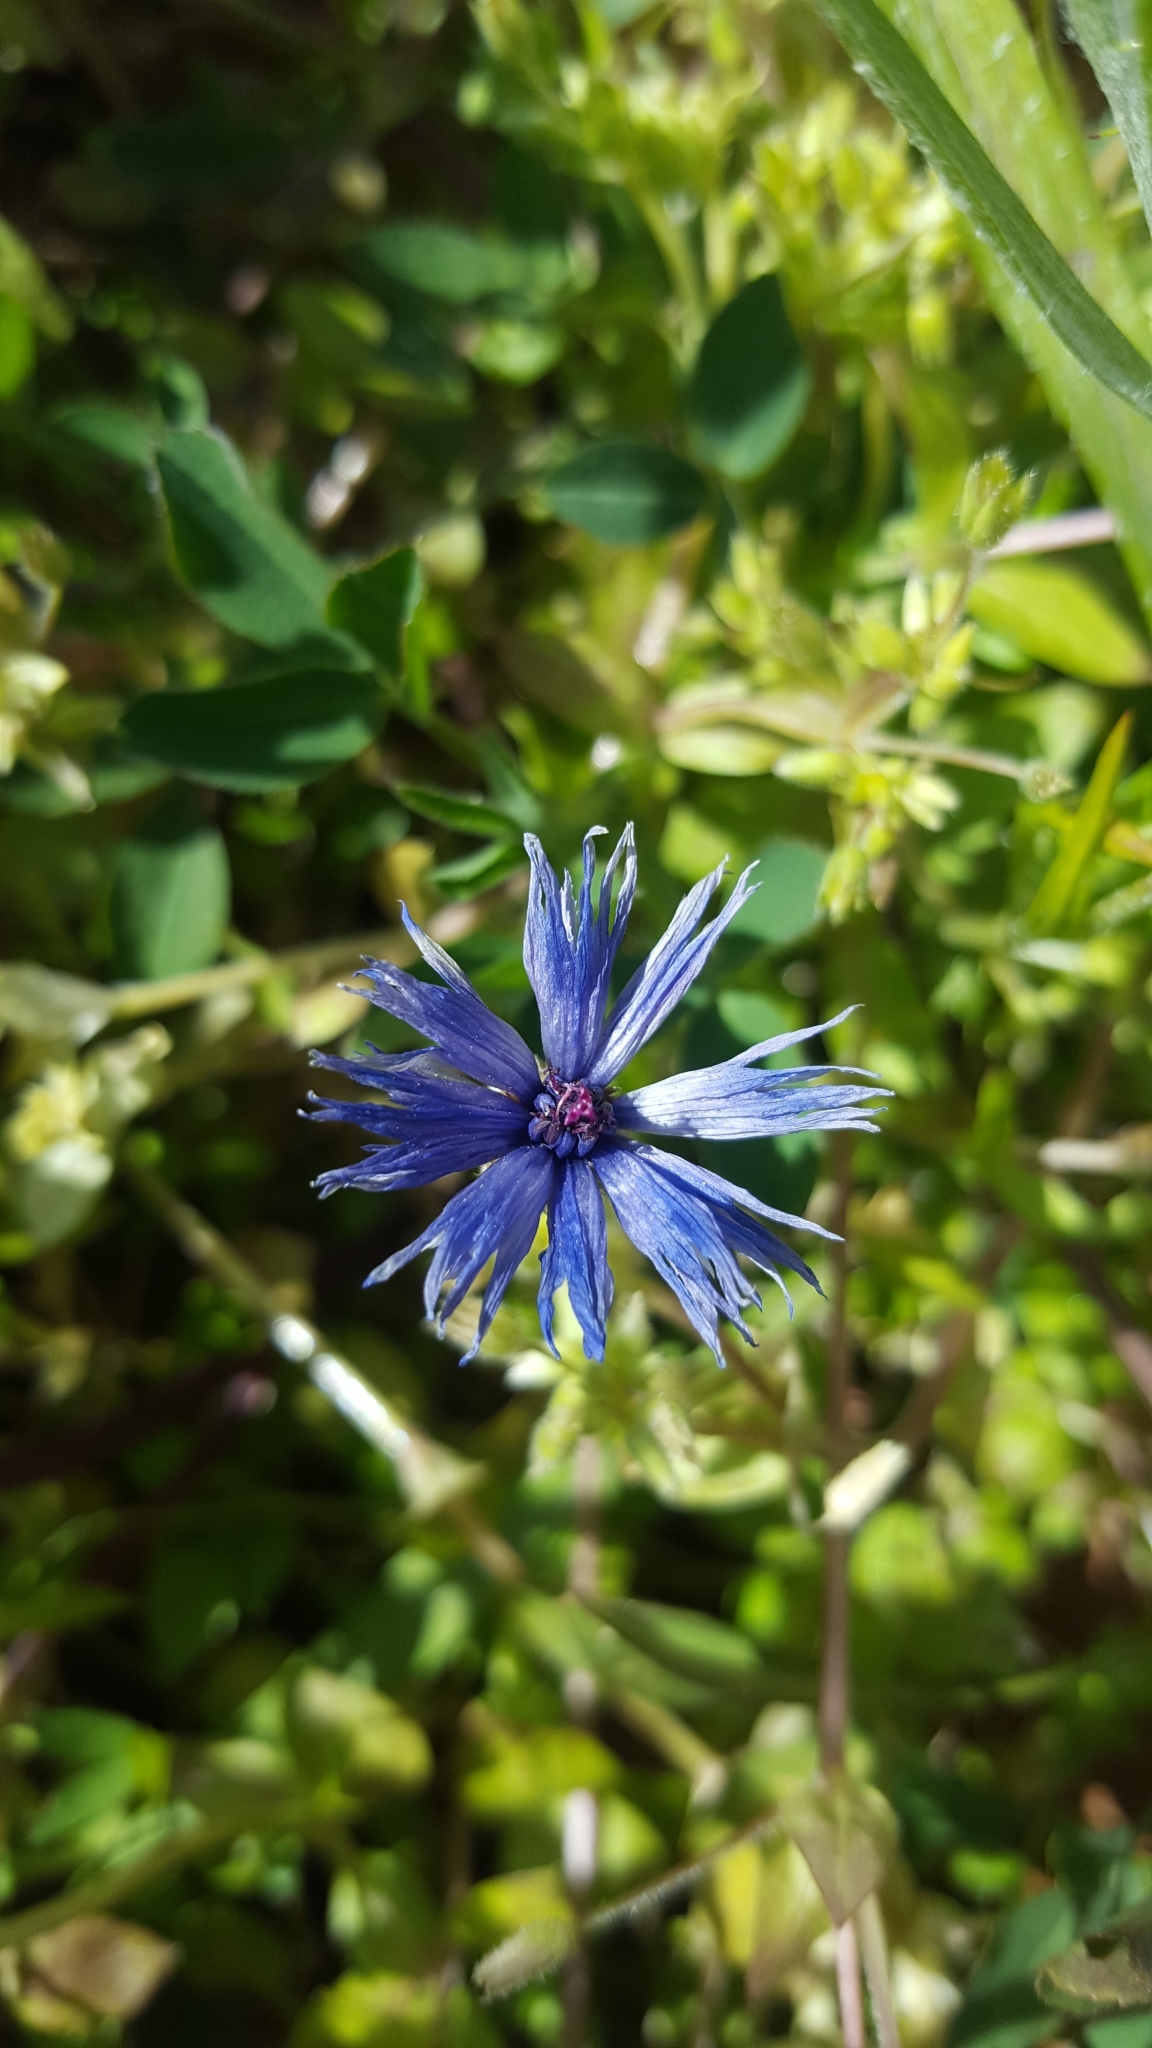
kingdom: Plantae
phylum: Tracheophyta
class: Magnoliopsida
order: Asterales
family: Asteraceae
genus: Centaurea
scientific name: Centaurea cyanus
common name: Cornflower
